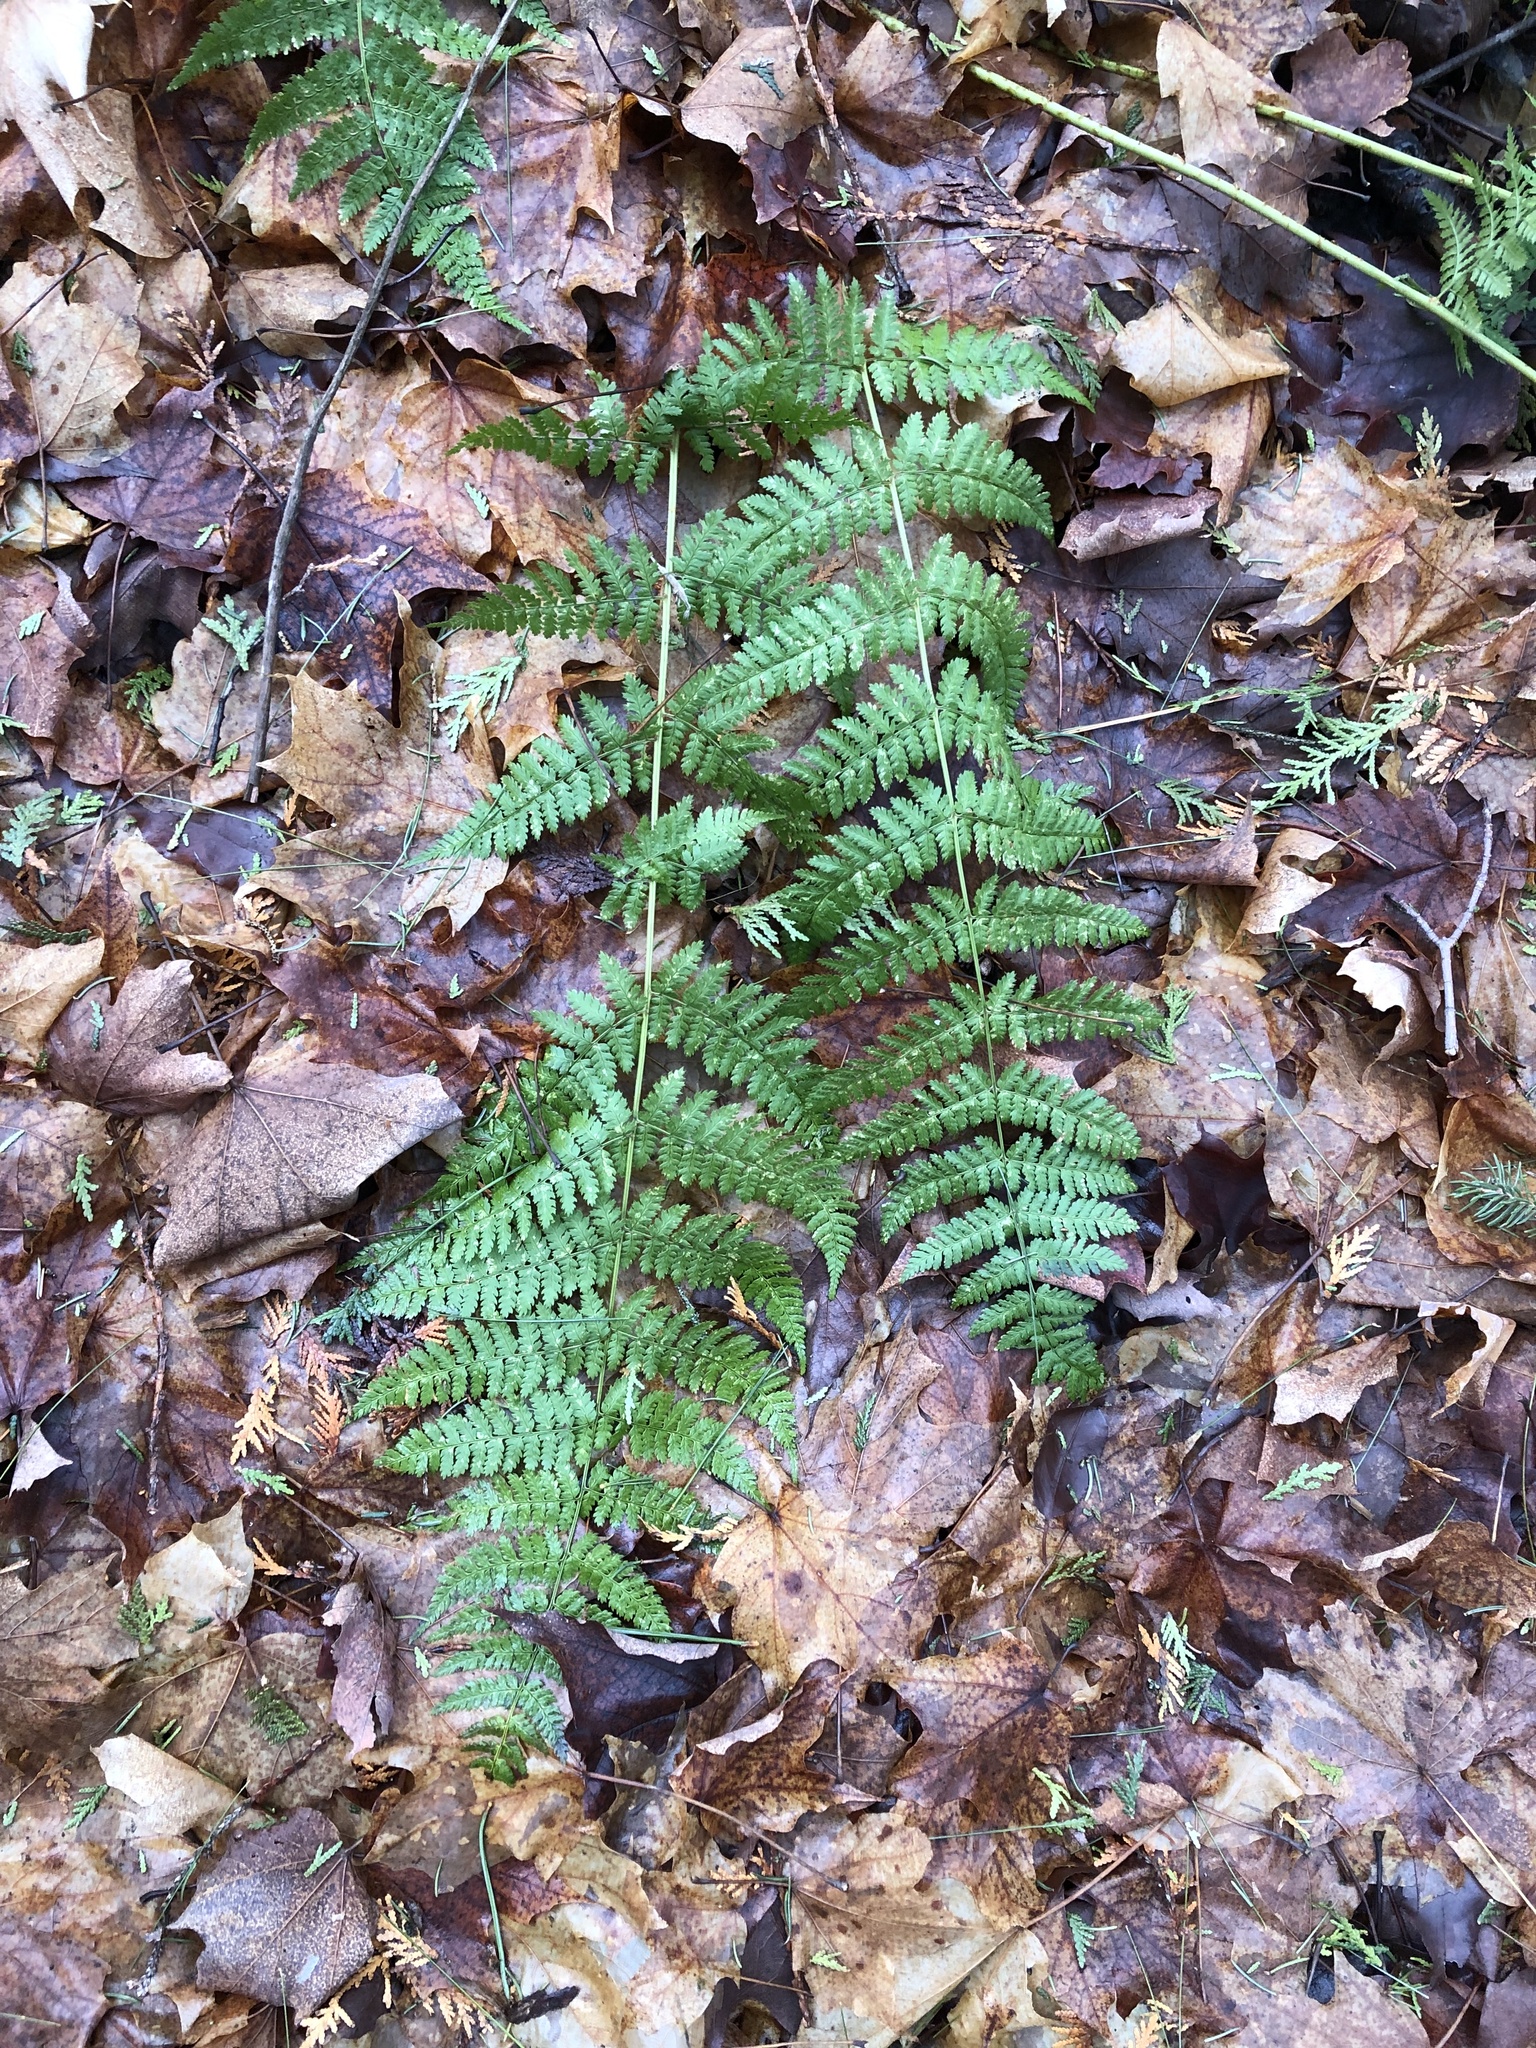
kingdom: Plantae
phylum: Tracheophyta
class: Polypodiopsida
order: Polypodiales
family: Dryopteridaceae
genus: Dryopteris
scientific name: Dryopteris intermedia
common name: Evergreen wood fern
